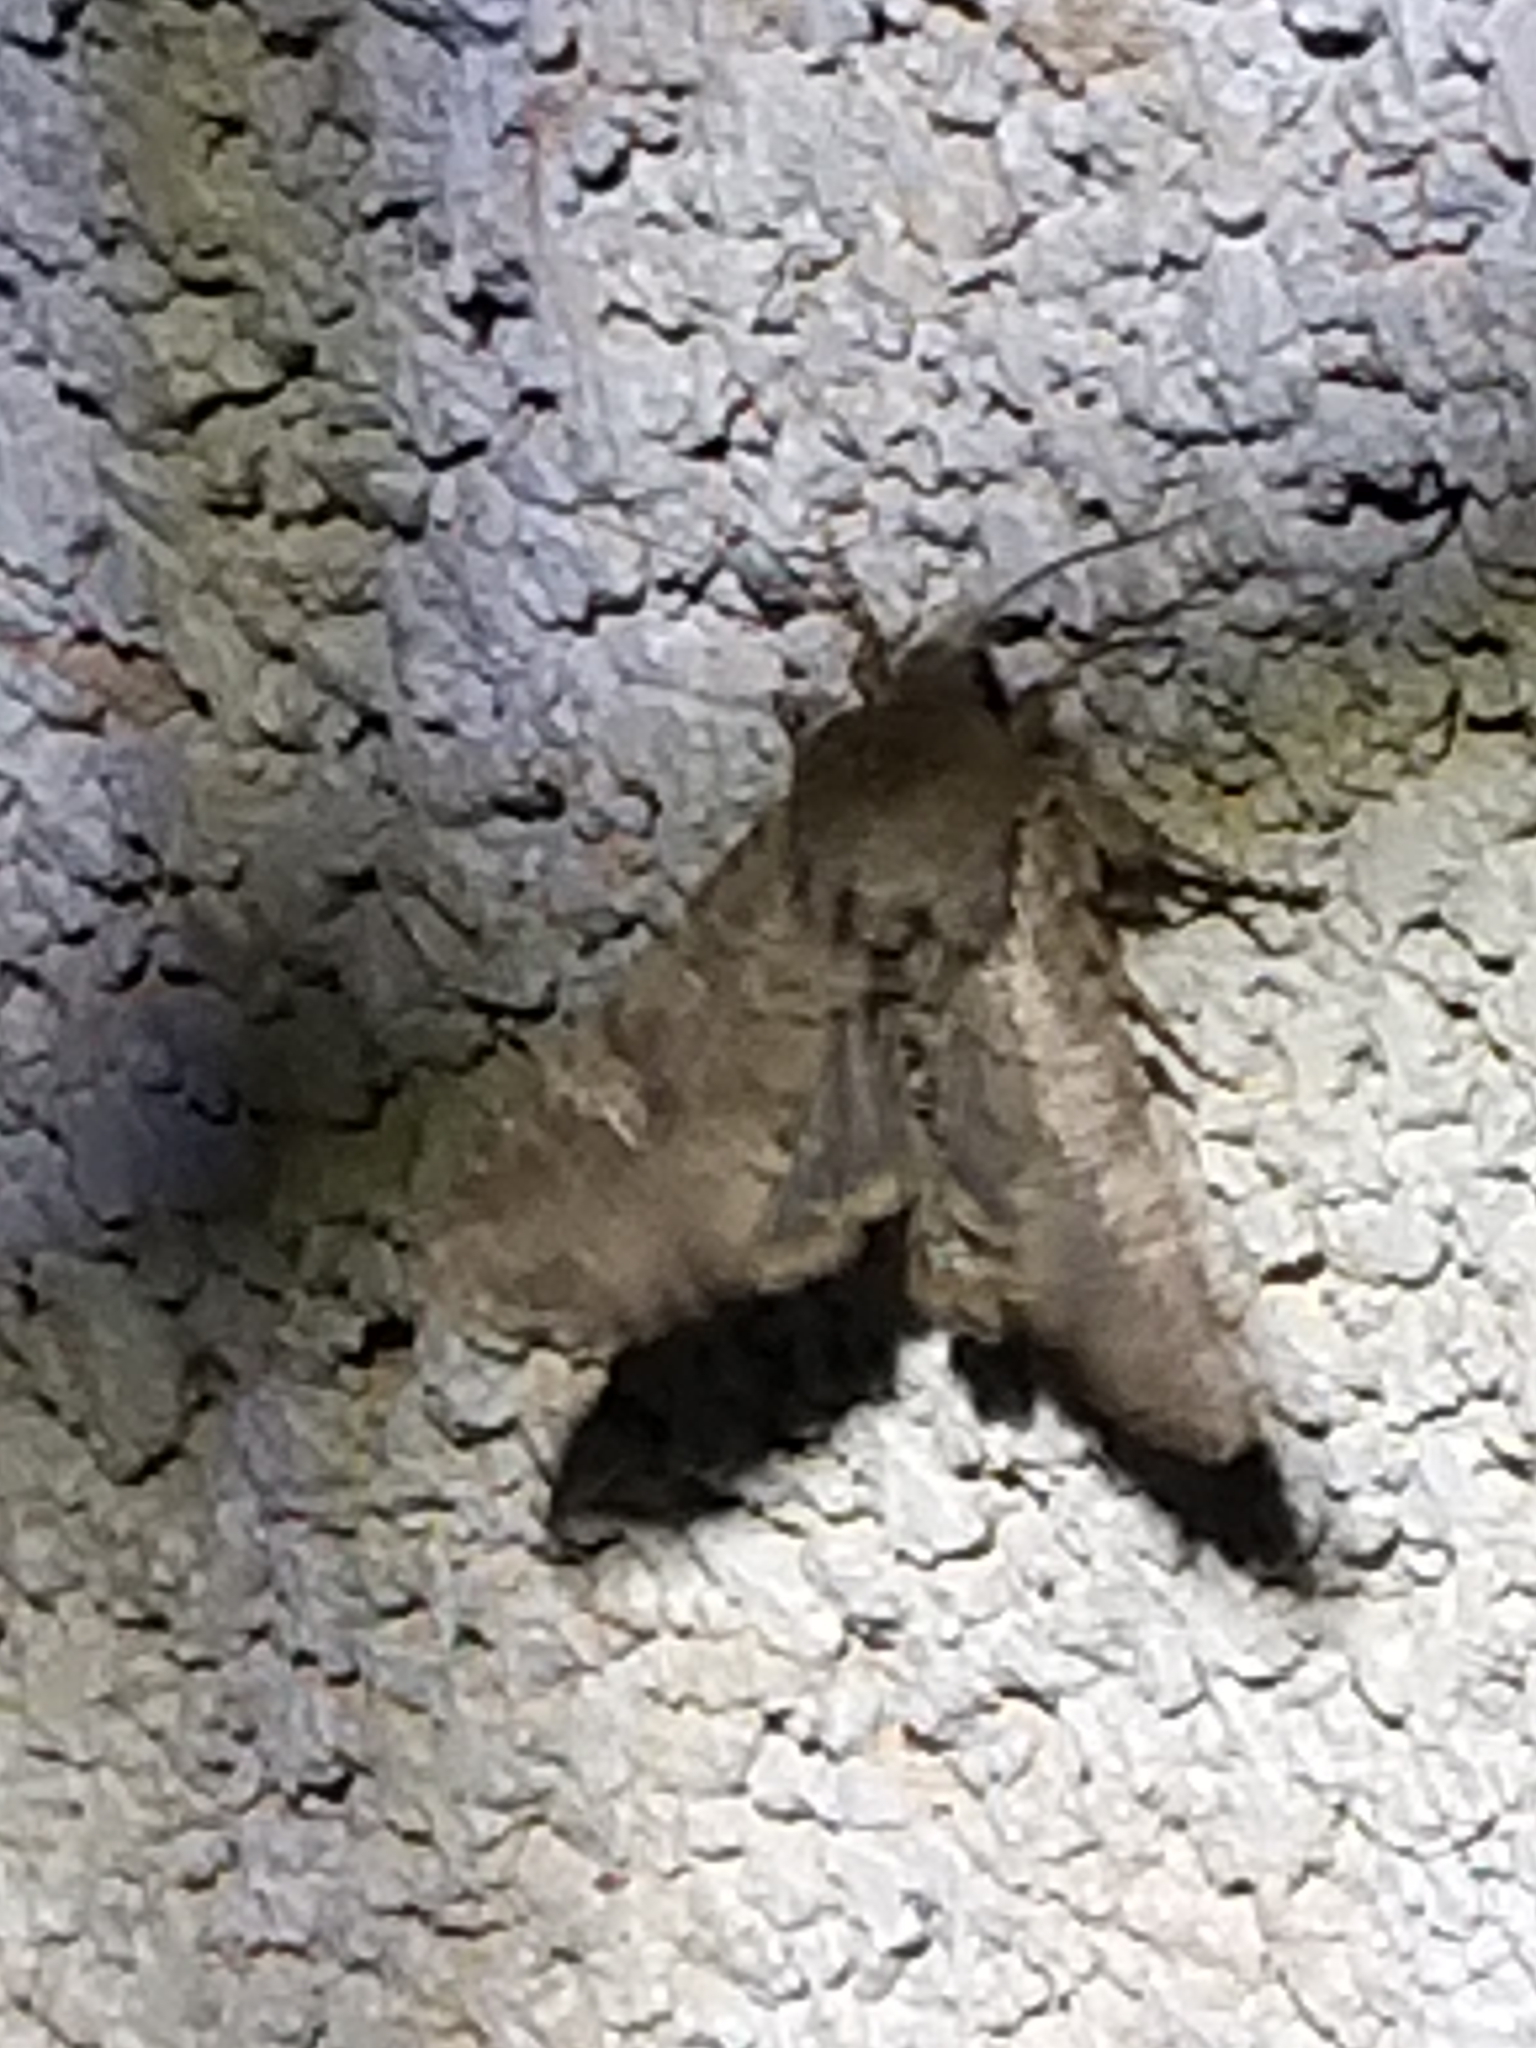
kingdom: Animalia
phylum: Arthropoda
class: Insecta
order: Lepidoptera
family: Noctuidae
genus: Apamea
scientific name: Apamea sordens
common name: Rustic shoulder-knot
